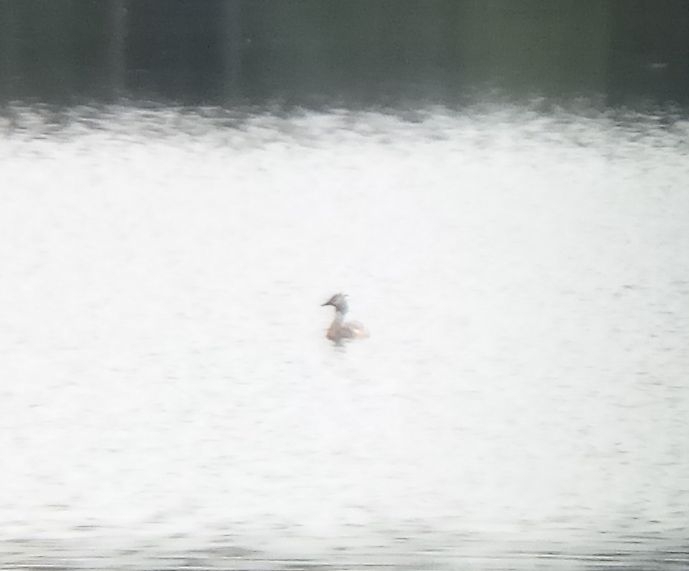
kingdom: Animalia
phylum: Chordata
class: Aves
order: Podicipediformes
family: Podicipedidae
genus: Podiceps
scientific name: Podiceps cristatus
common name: Great crested grebe
